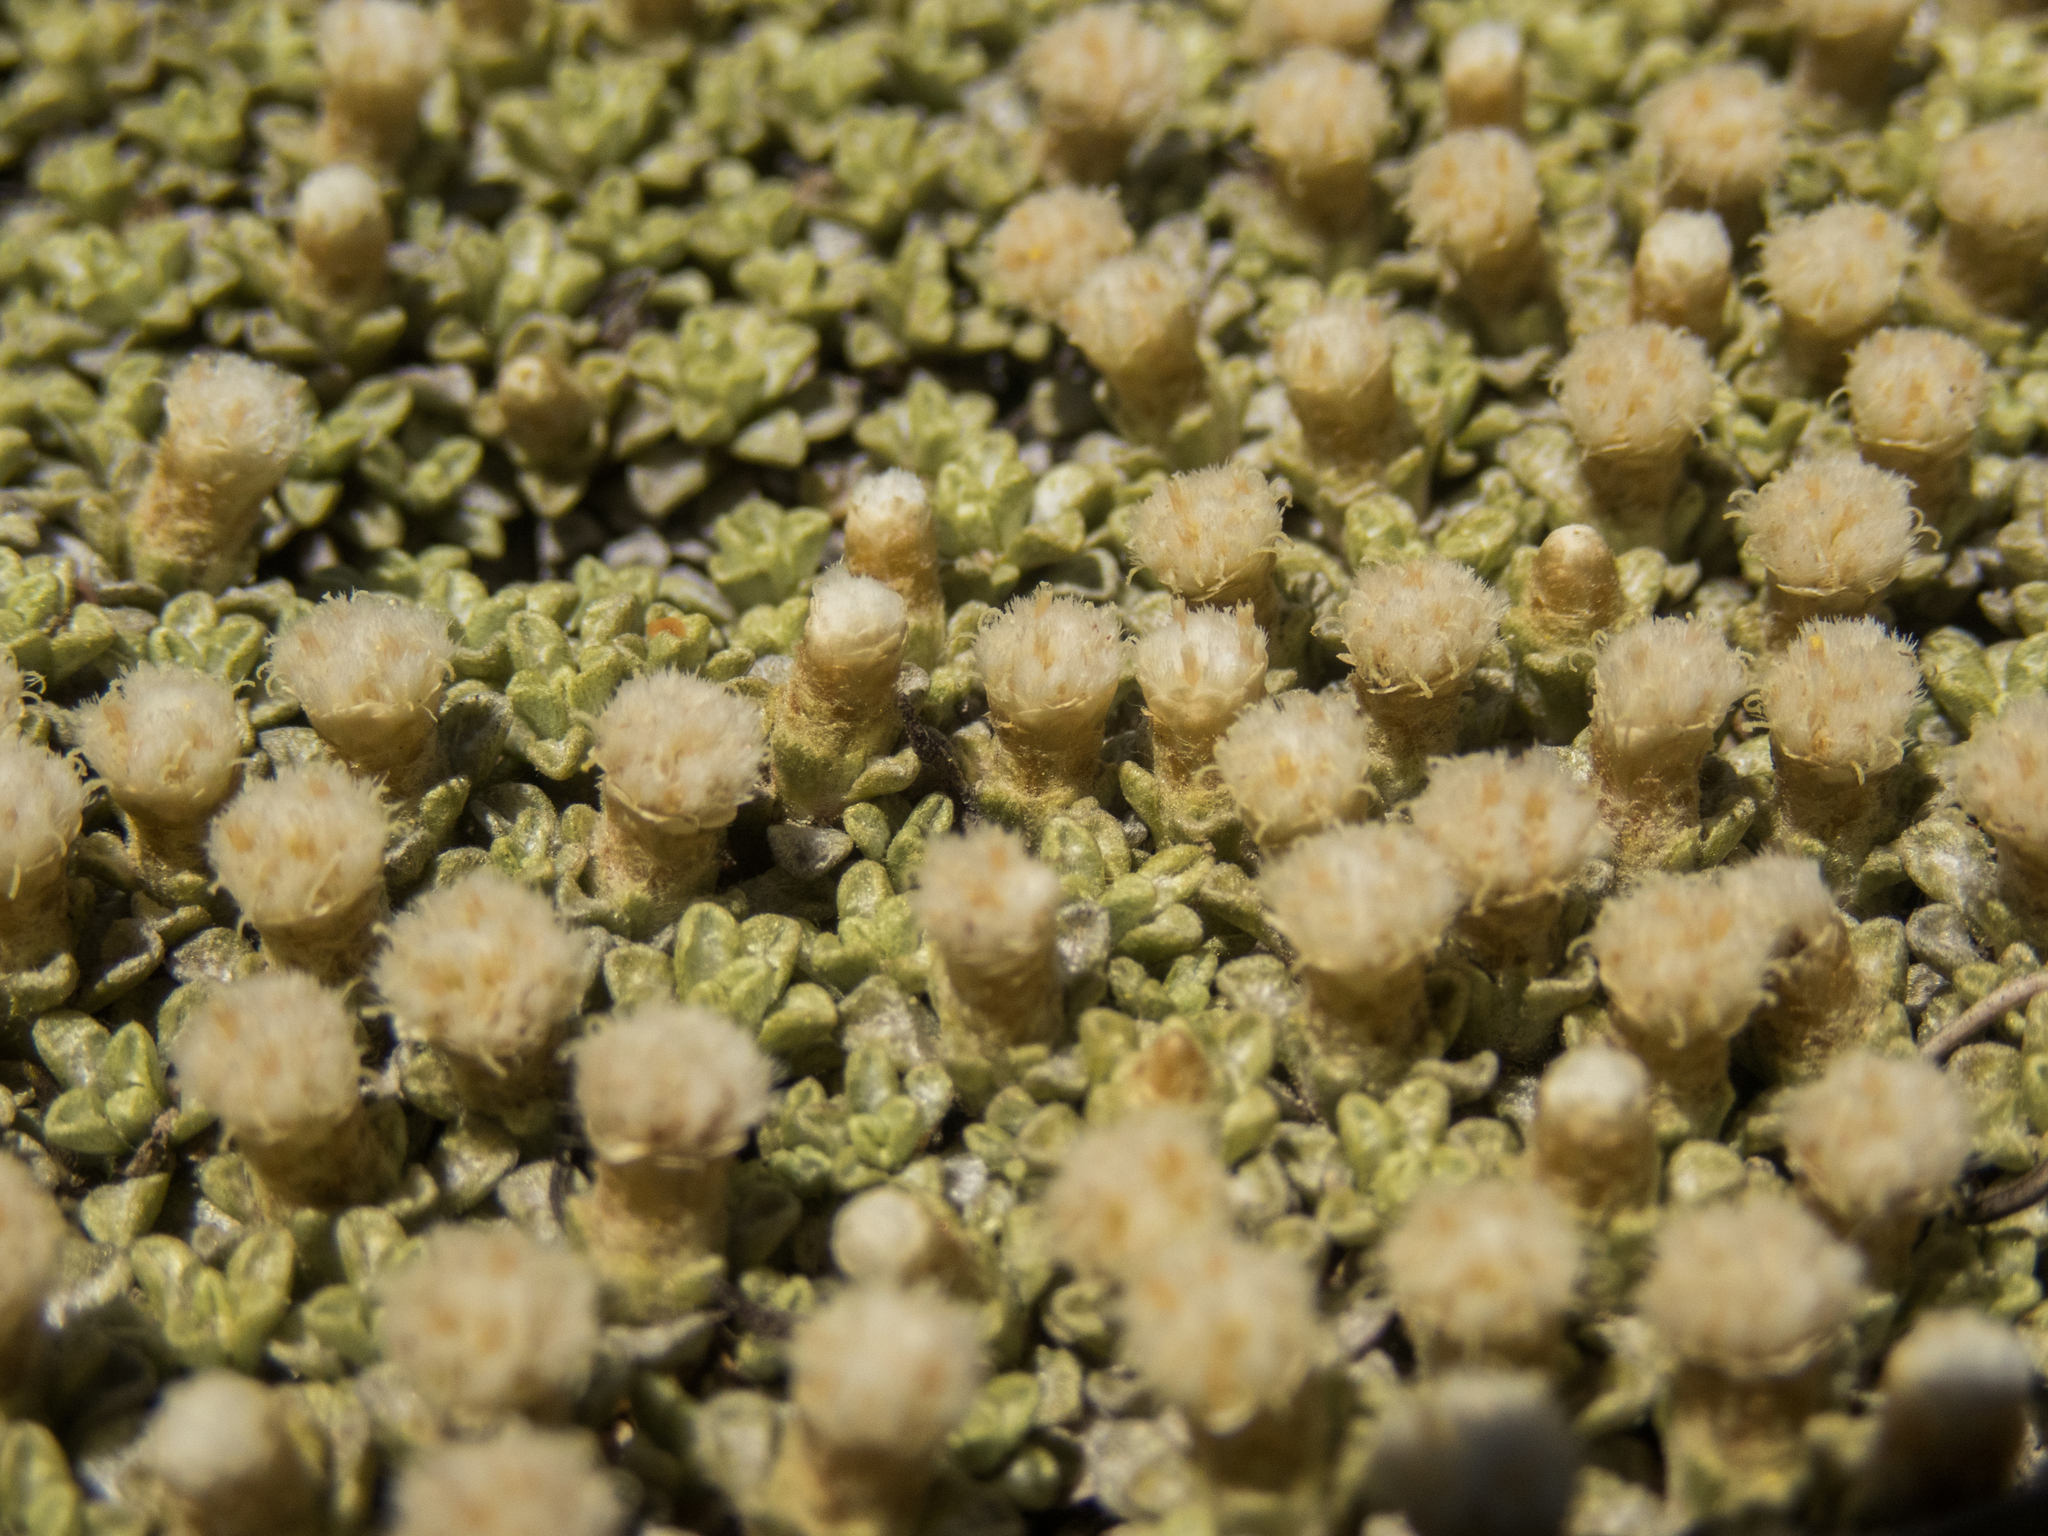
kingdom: Plantae
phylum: Tracheophyta
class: Magnoliopsida
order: Asterales
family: Asteraceae
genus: Raoulia
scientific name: Raoulia parkii
